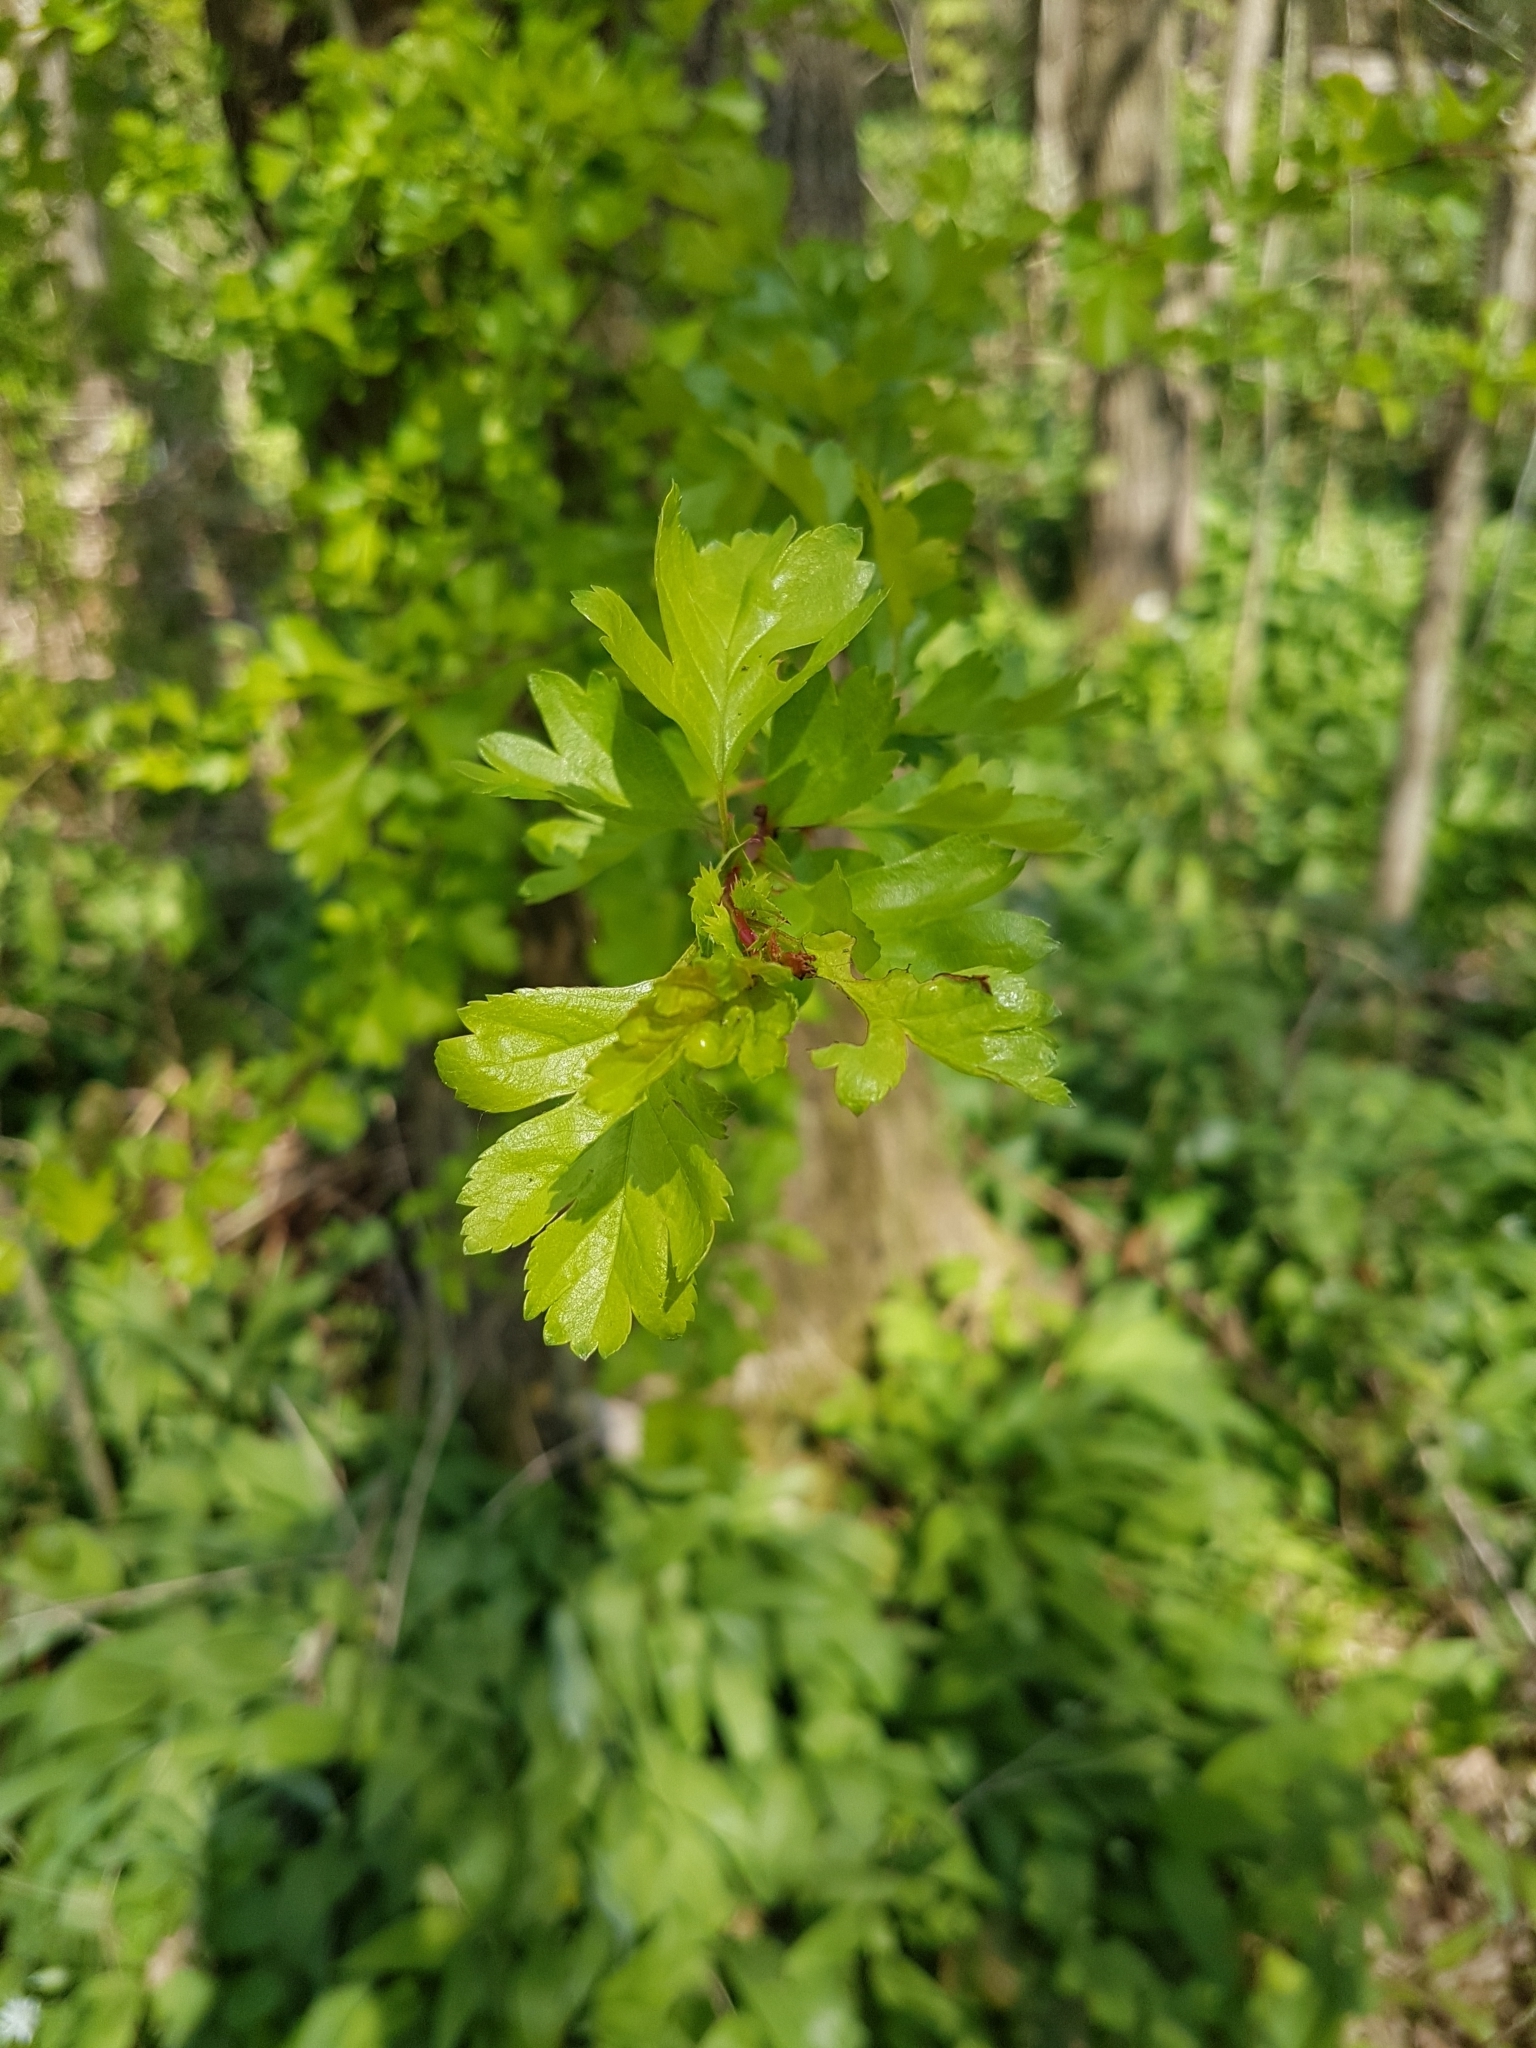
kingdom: Plantae
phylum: Tracheophyta
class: Magnoliopsida
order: Rosales
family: Rosaceae
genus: Crataegus
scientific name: Crataegus monogyna
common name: Hawthorn
